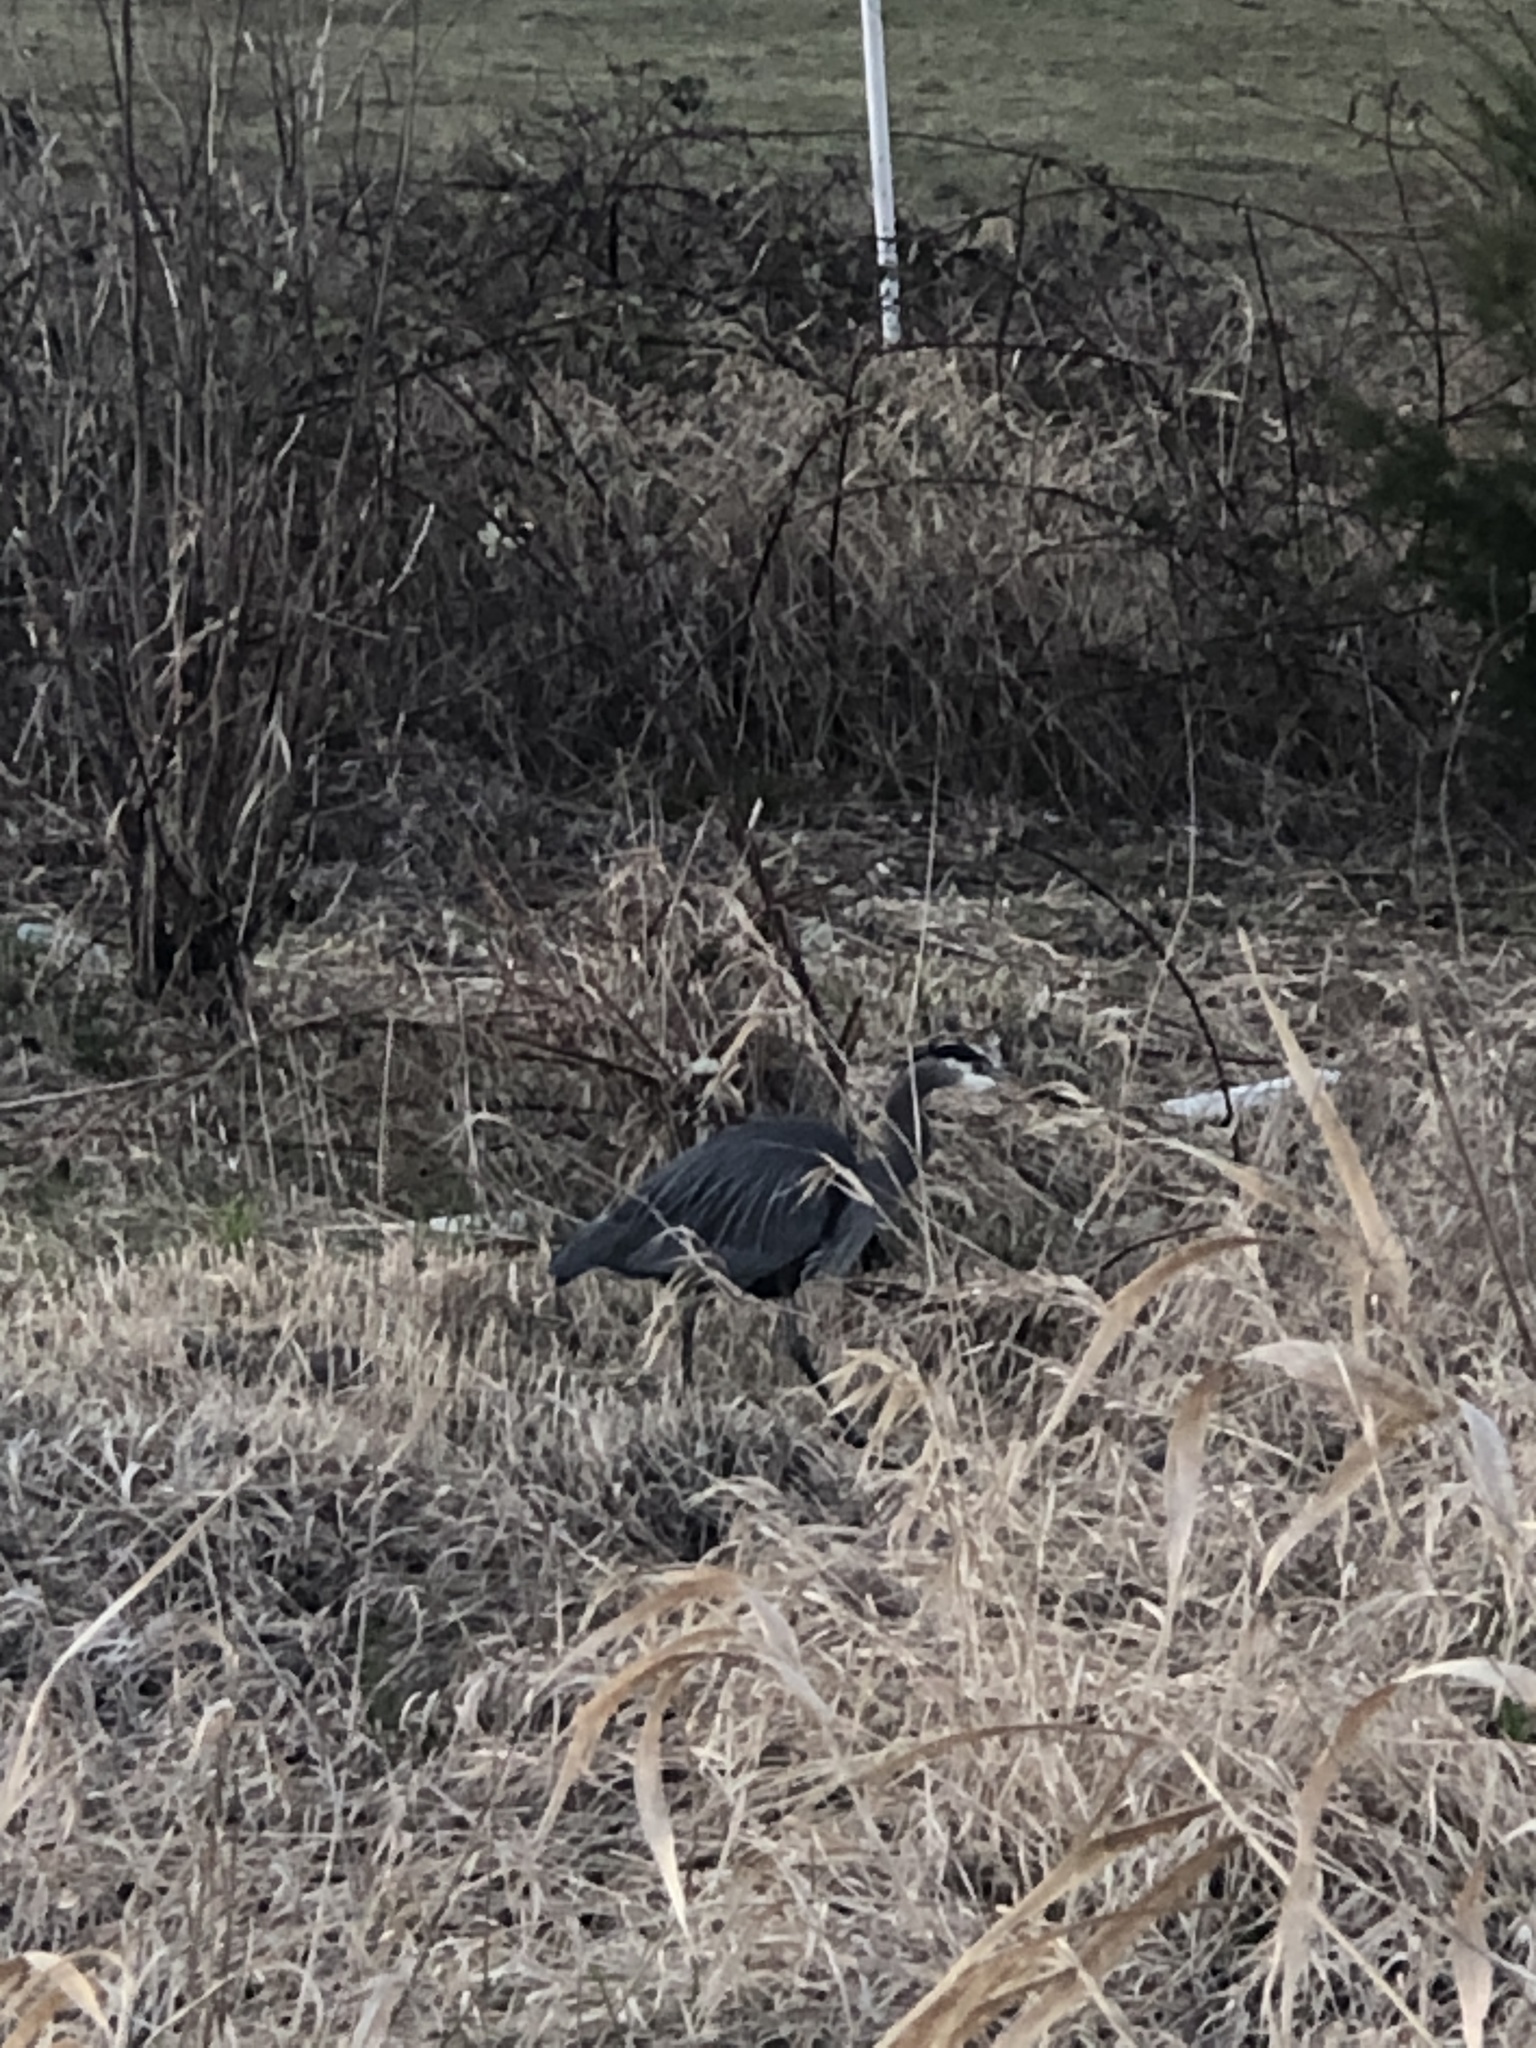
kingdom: Animalia
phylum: Chordata
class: Aves
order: Pelecaniformes
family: Ardeidae
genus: Ardea
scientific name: Ardea herodias
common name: Great blue heron
